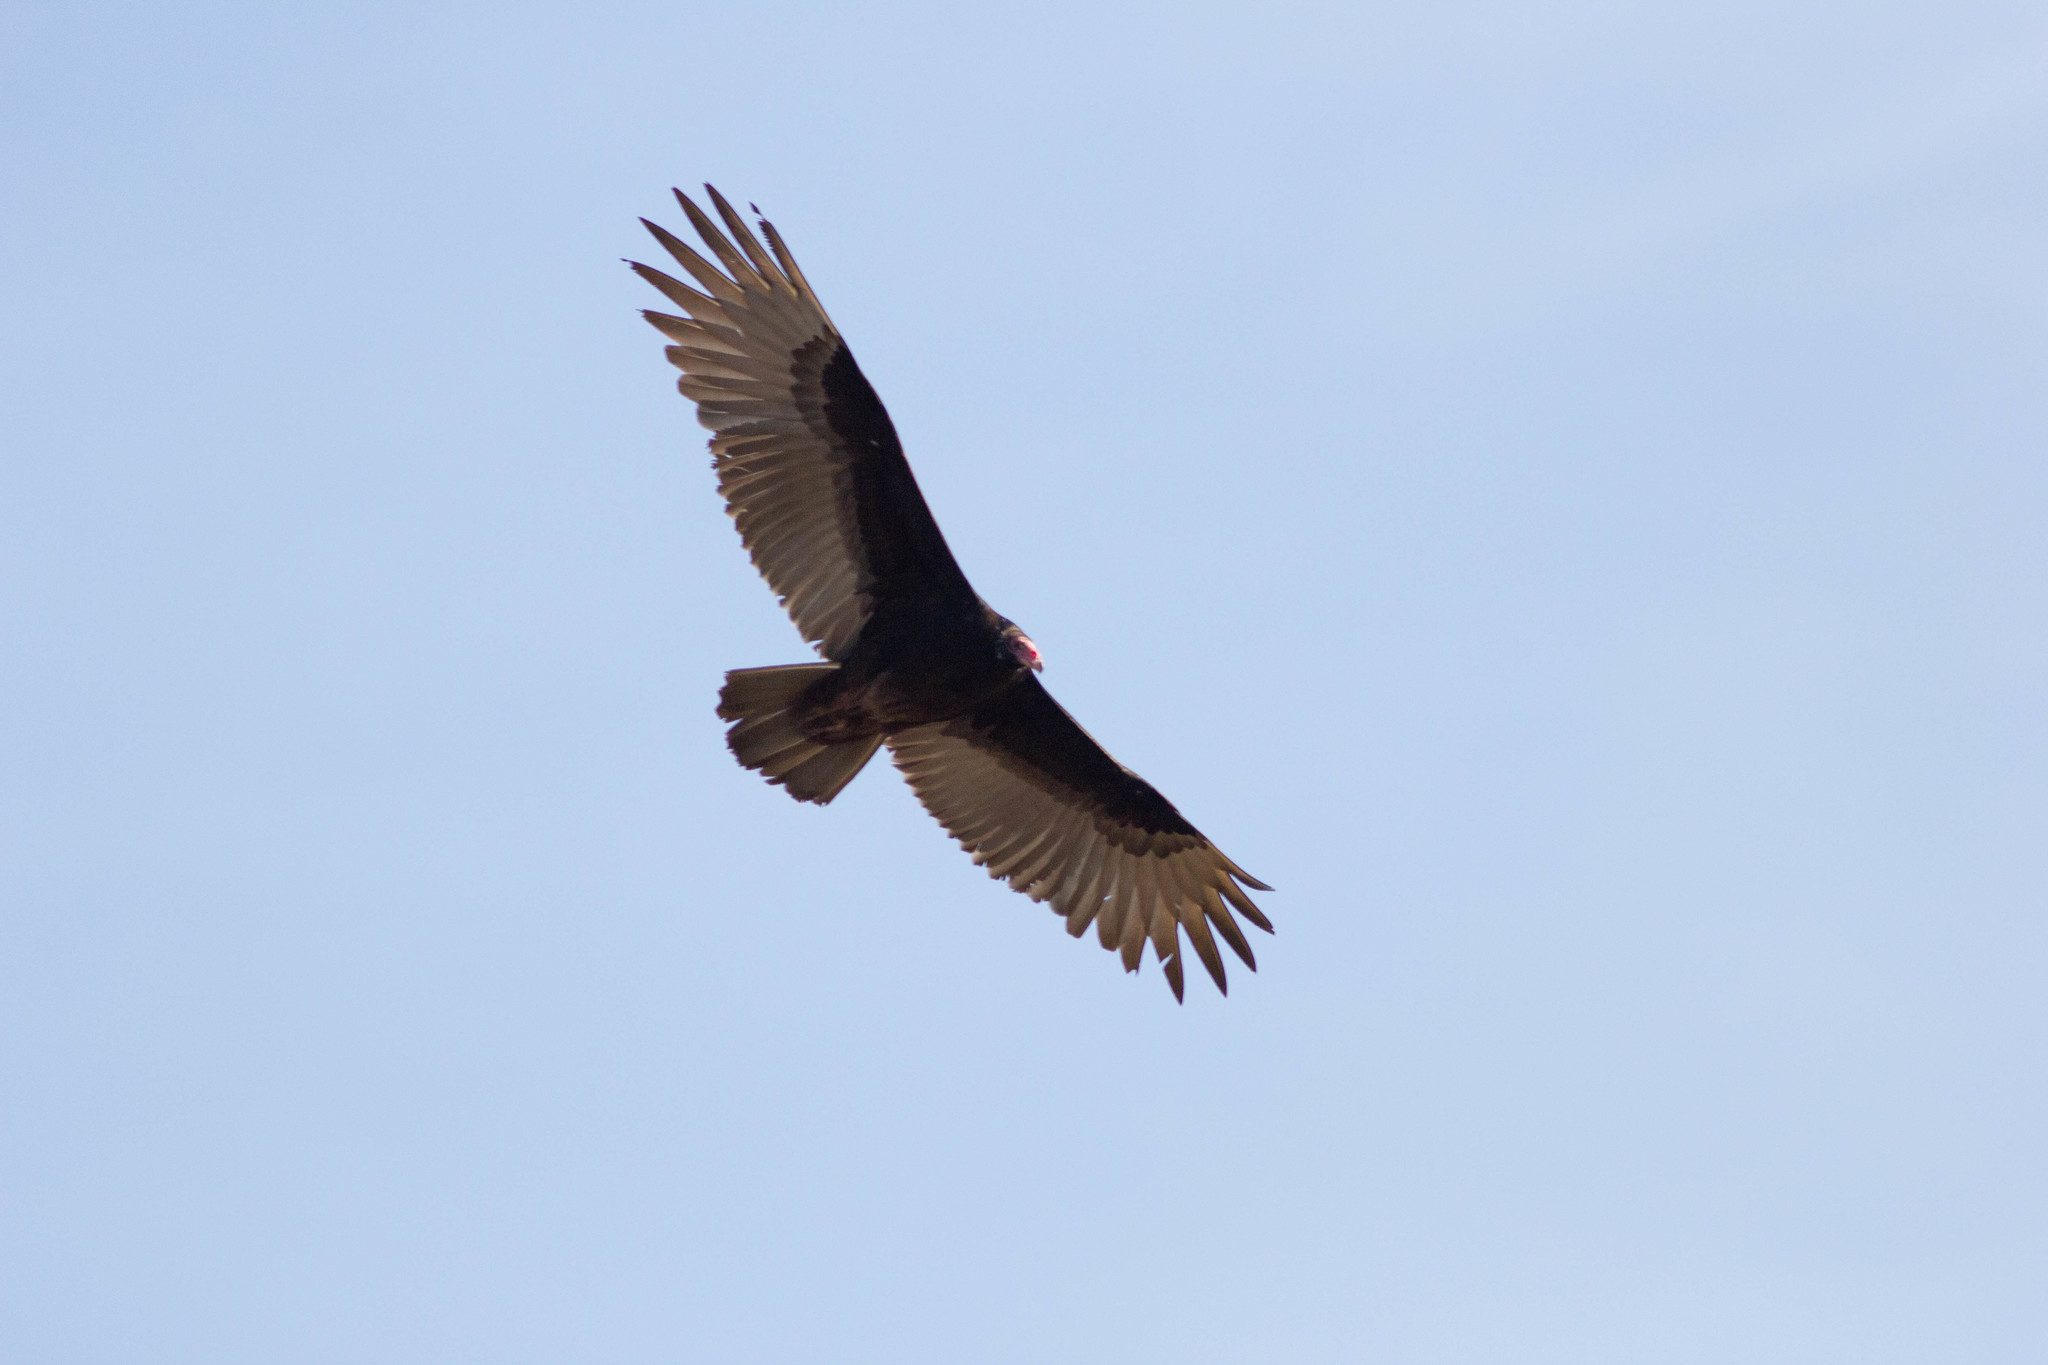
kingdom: Animalia
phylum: Chordata
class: Aves
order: Accipitriformes
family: Cathartidae
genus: Cathartes
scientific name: Cathartes aura
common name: Turkey vulture
